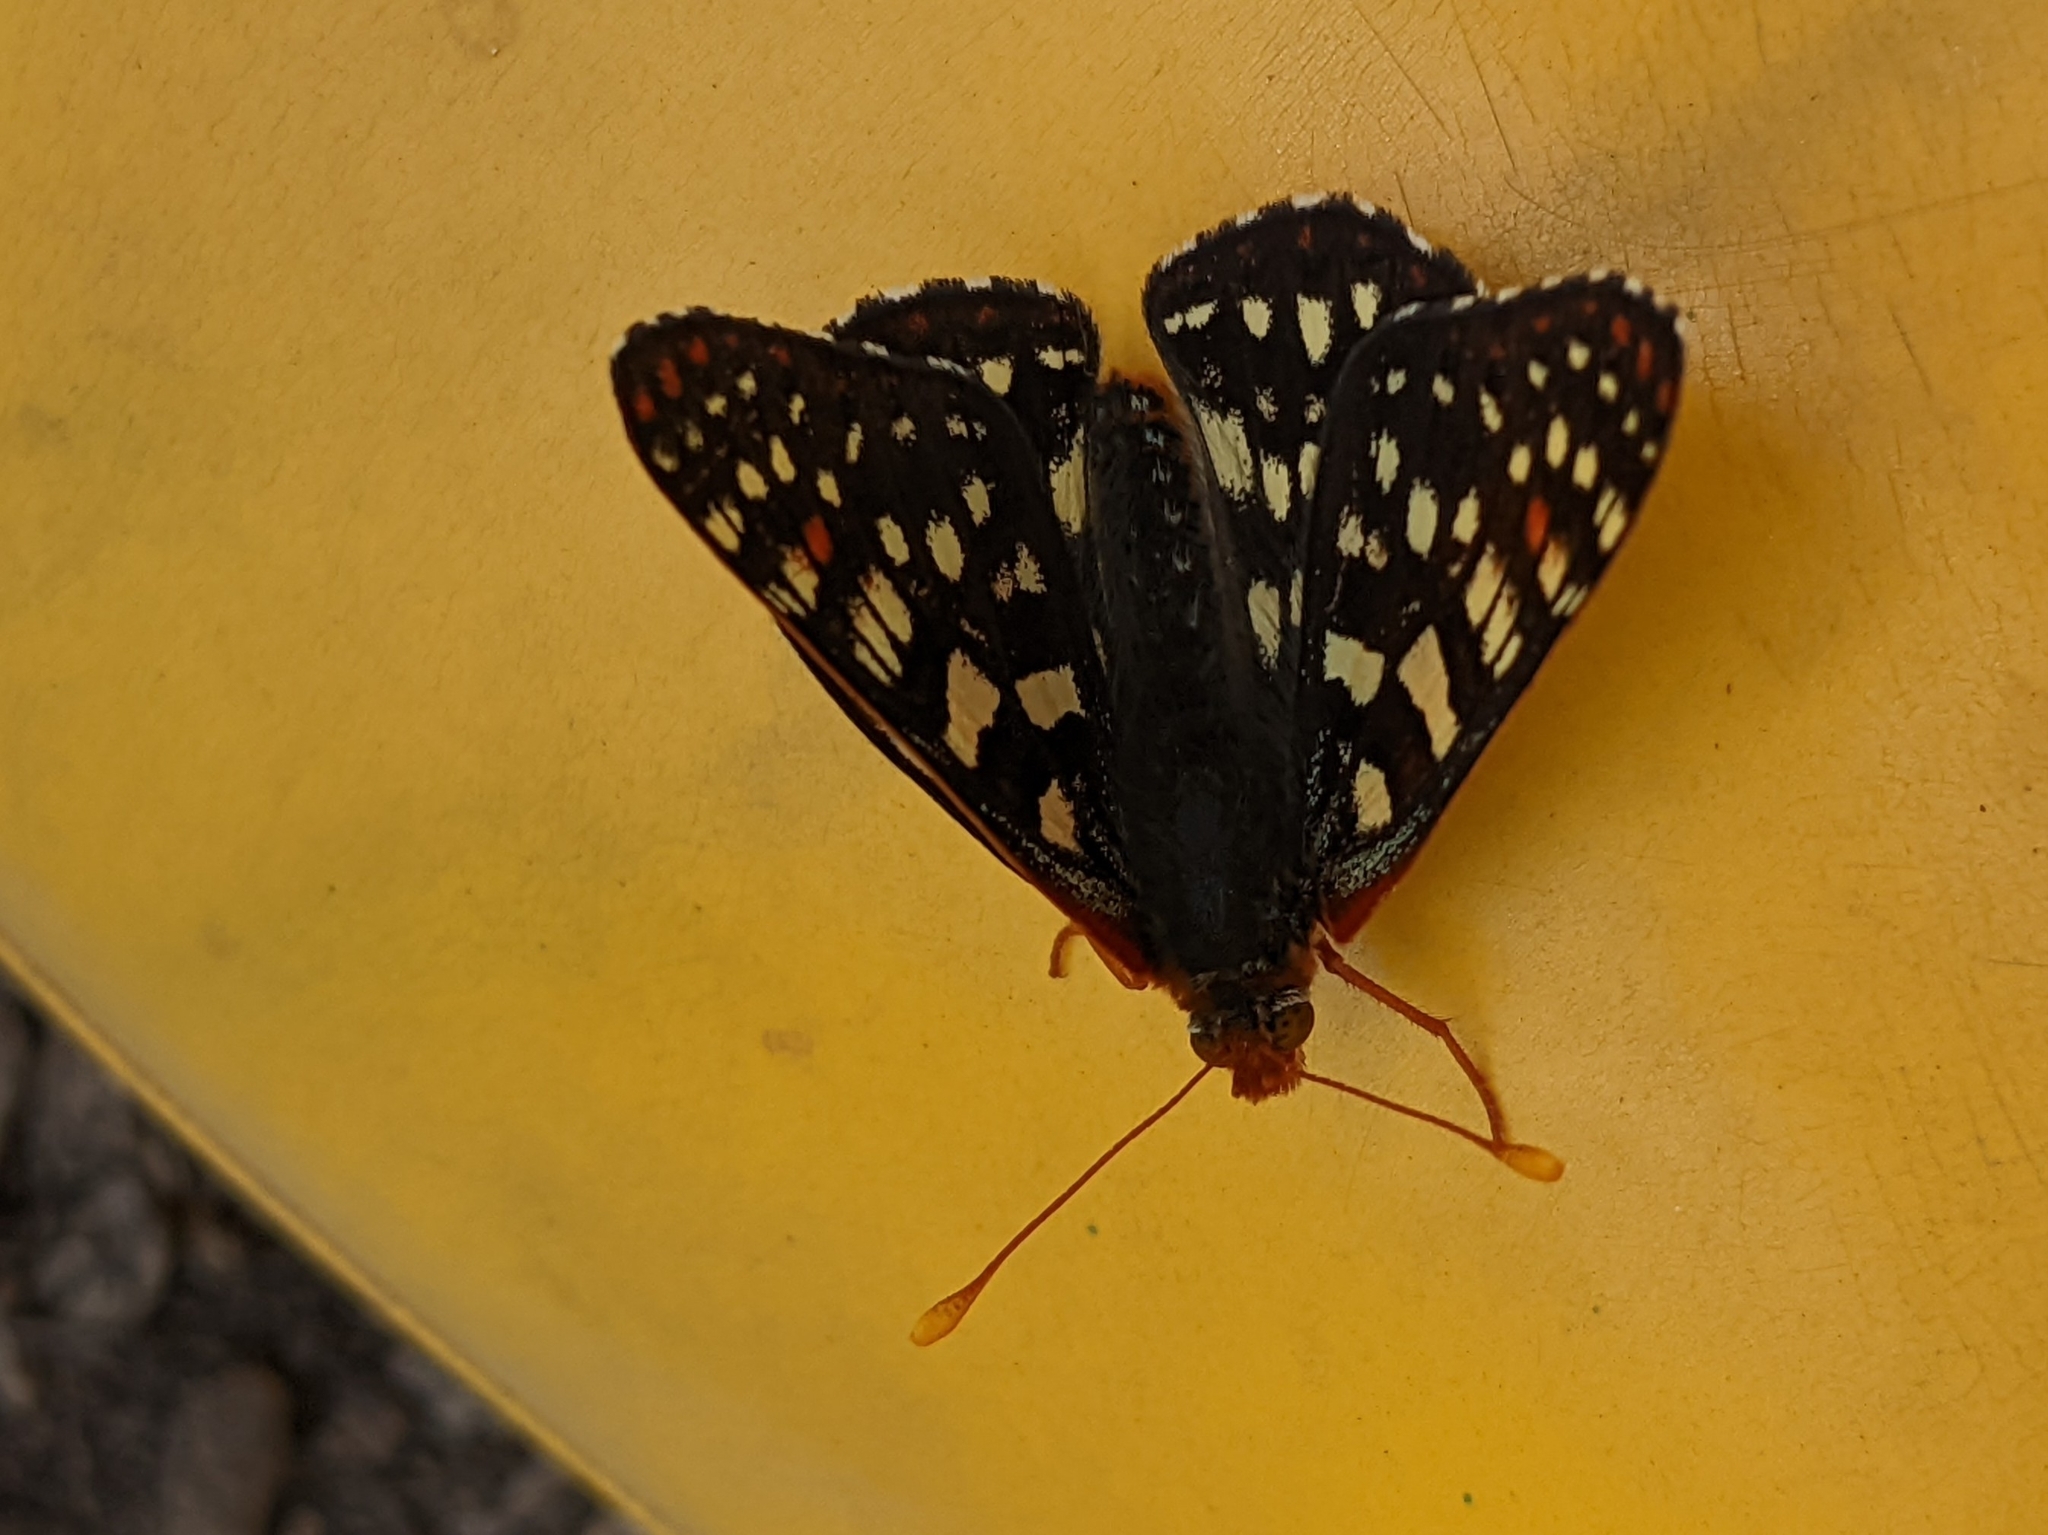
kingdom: Animalia
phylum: Arthropoda
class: Insecta
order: Lepidoptera
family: Nymphalidae
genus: Occidryas
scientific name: Occidryas chalcedona
